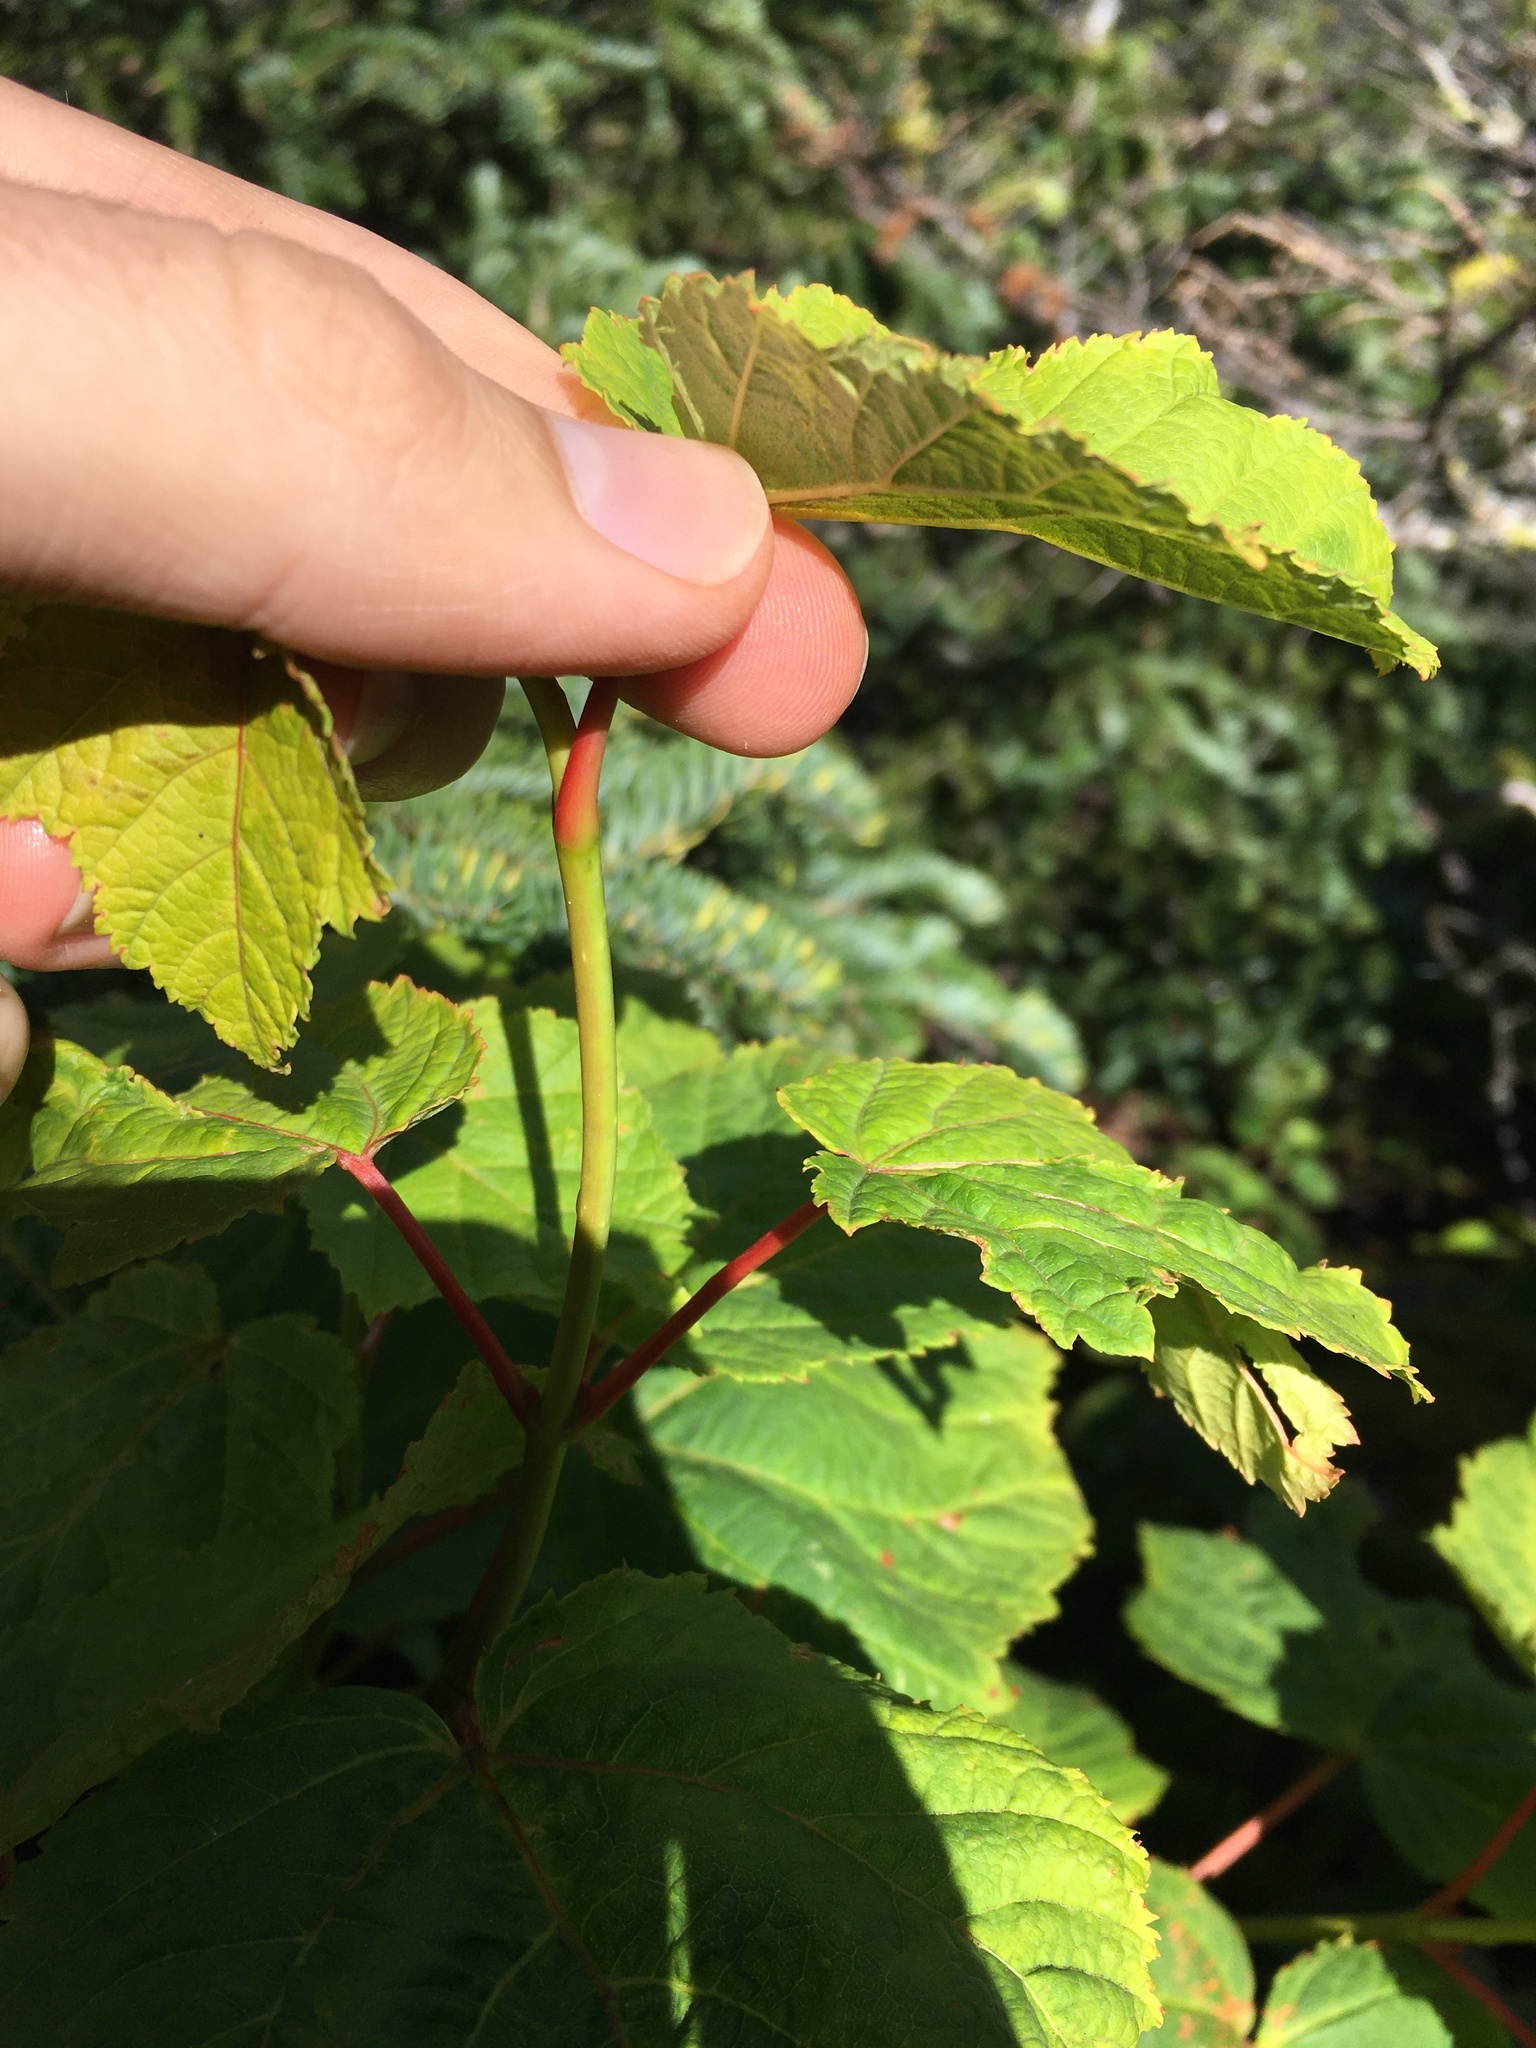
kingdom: Plantae
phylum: Tracheophyta
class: Magnoliopsida
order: Sapindales
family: Sapindaceae
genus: Acer
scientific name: Acer pensylvanicum
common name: Moosewood
